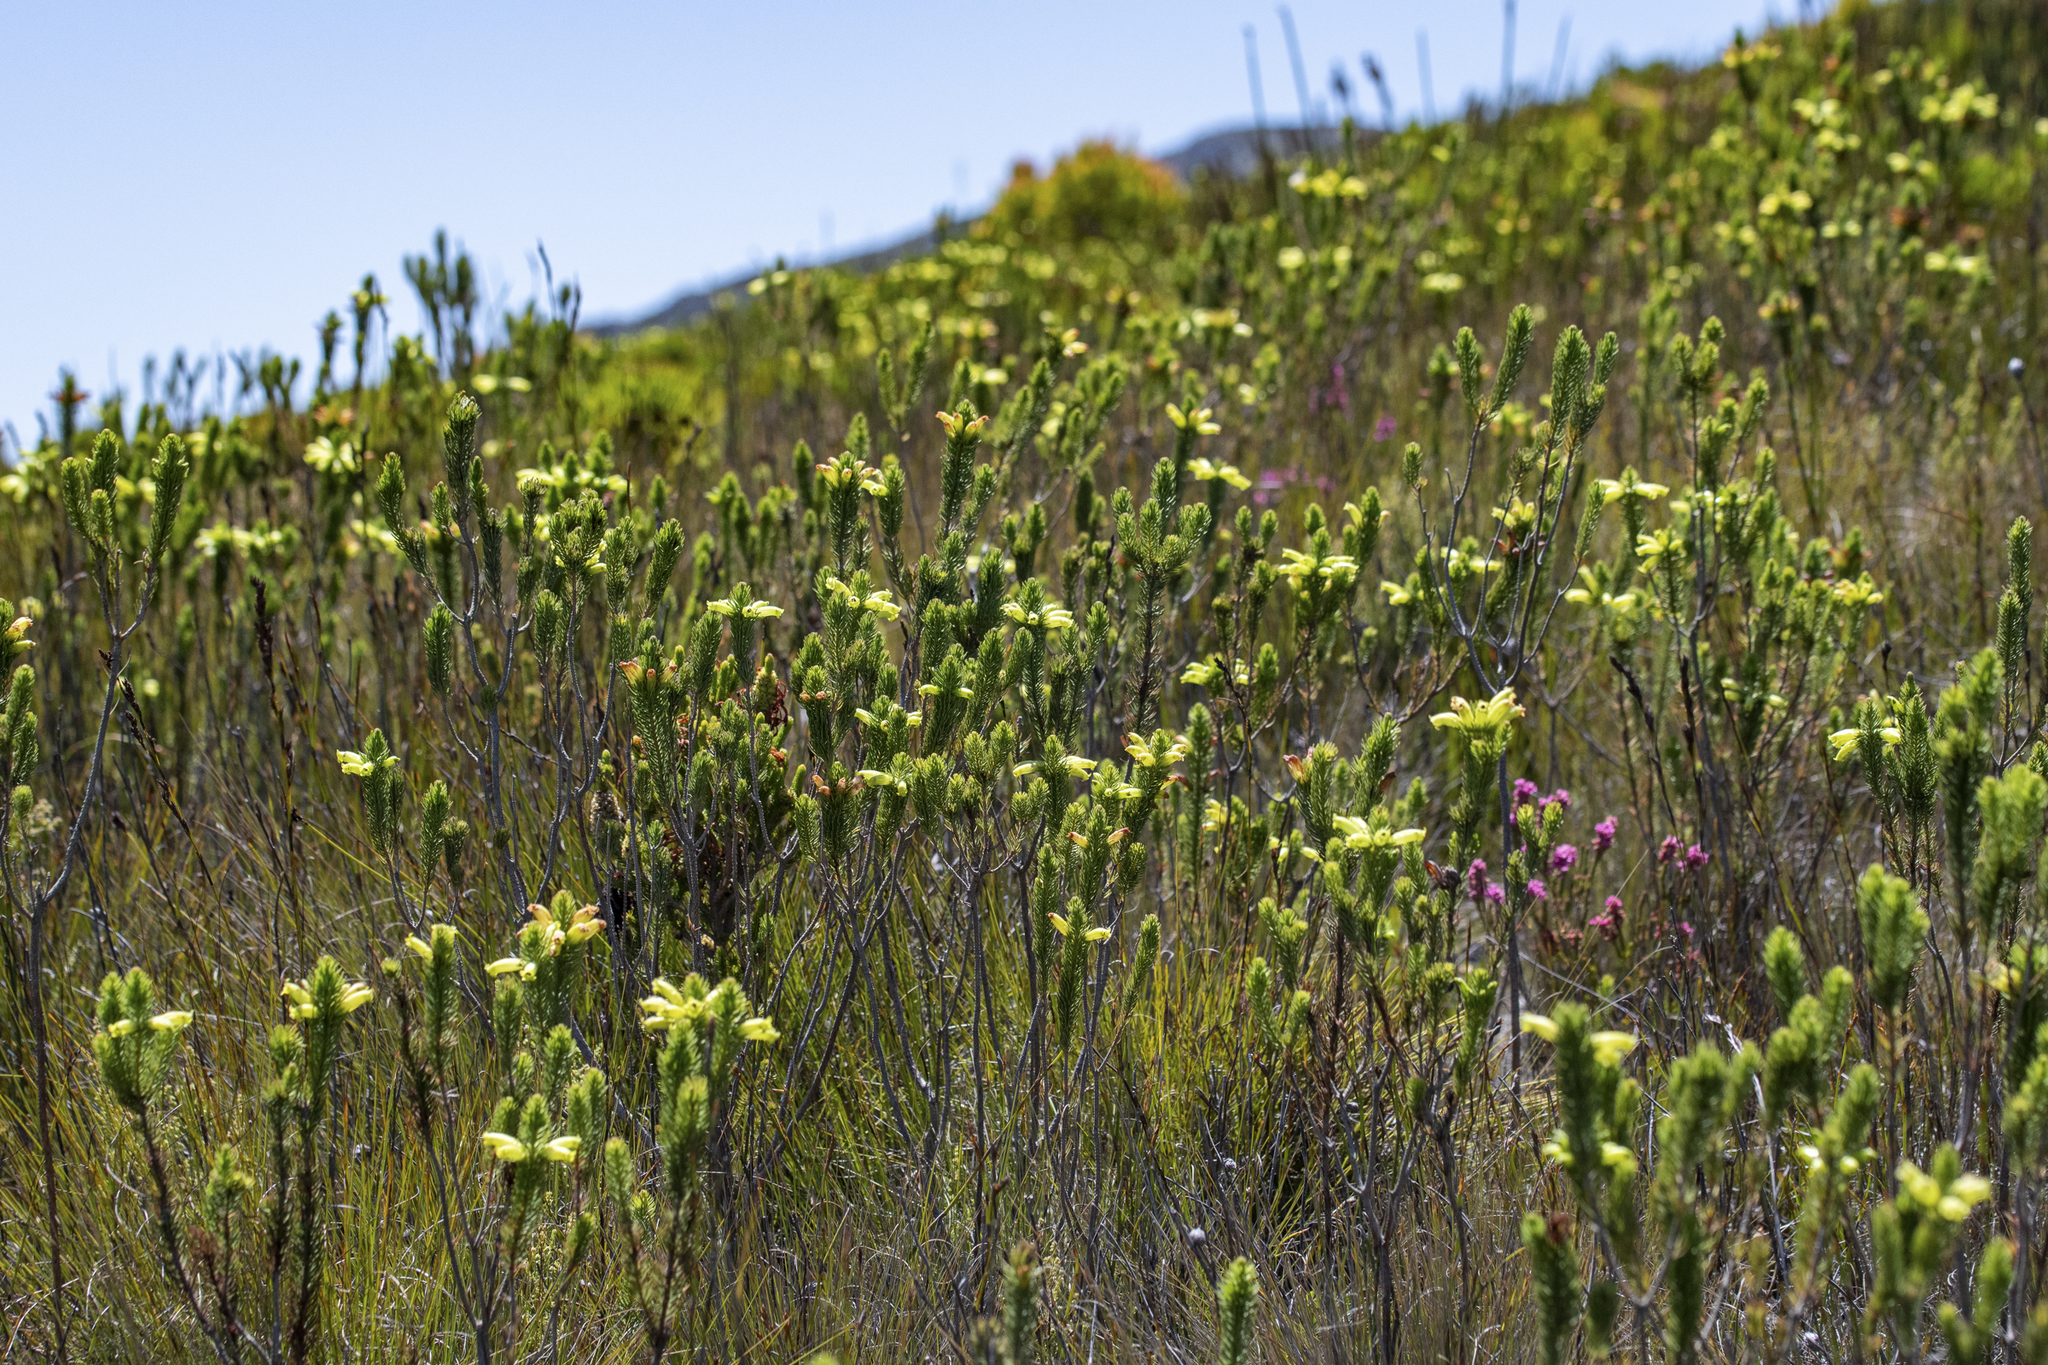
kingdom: Plantae
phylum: Tracheophyta
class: Magnoliopsida
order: Ericales
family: Ericaceae
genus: Erica
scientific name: Erica viscaria
